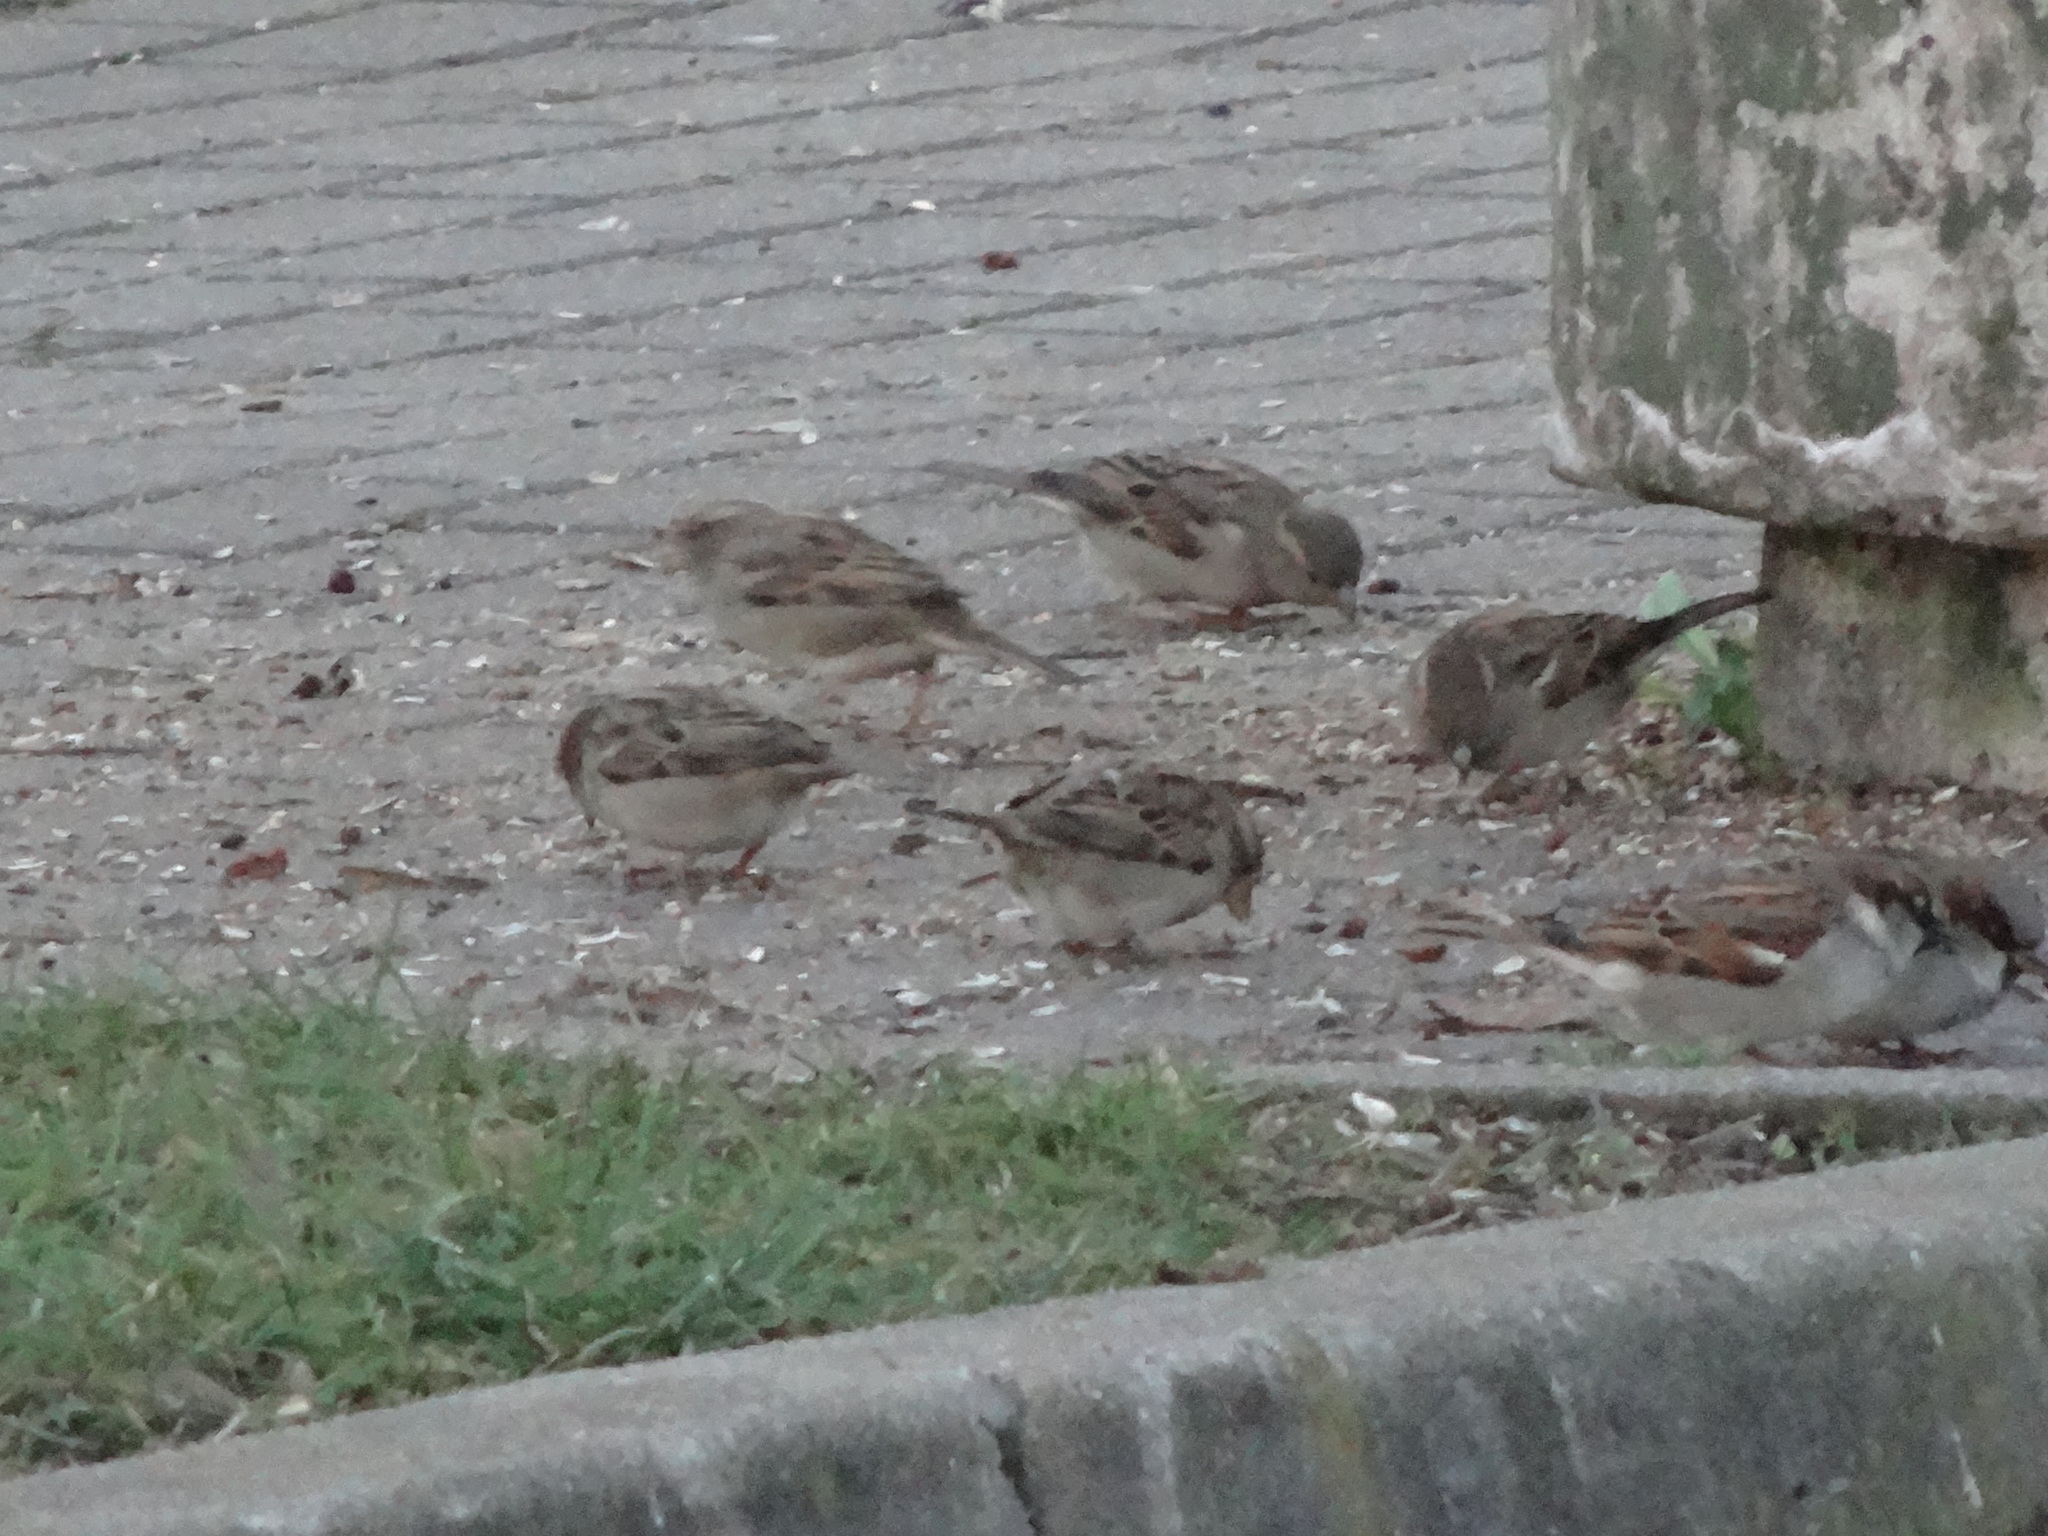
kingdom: Animalia
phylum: Chordata
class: Aves
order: Passeriformes
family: Passeridae
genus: Passer
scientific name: Passer domesticus
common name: House sparrow
